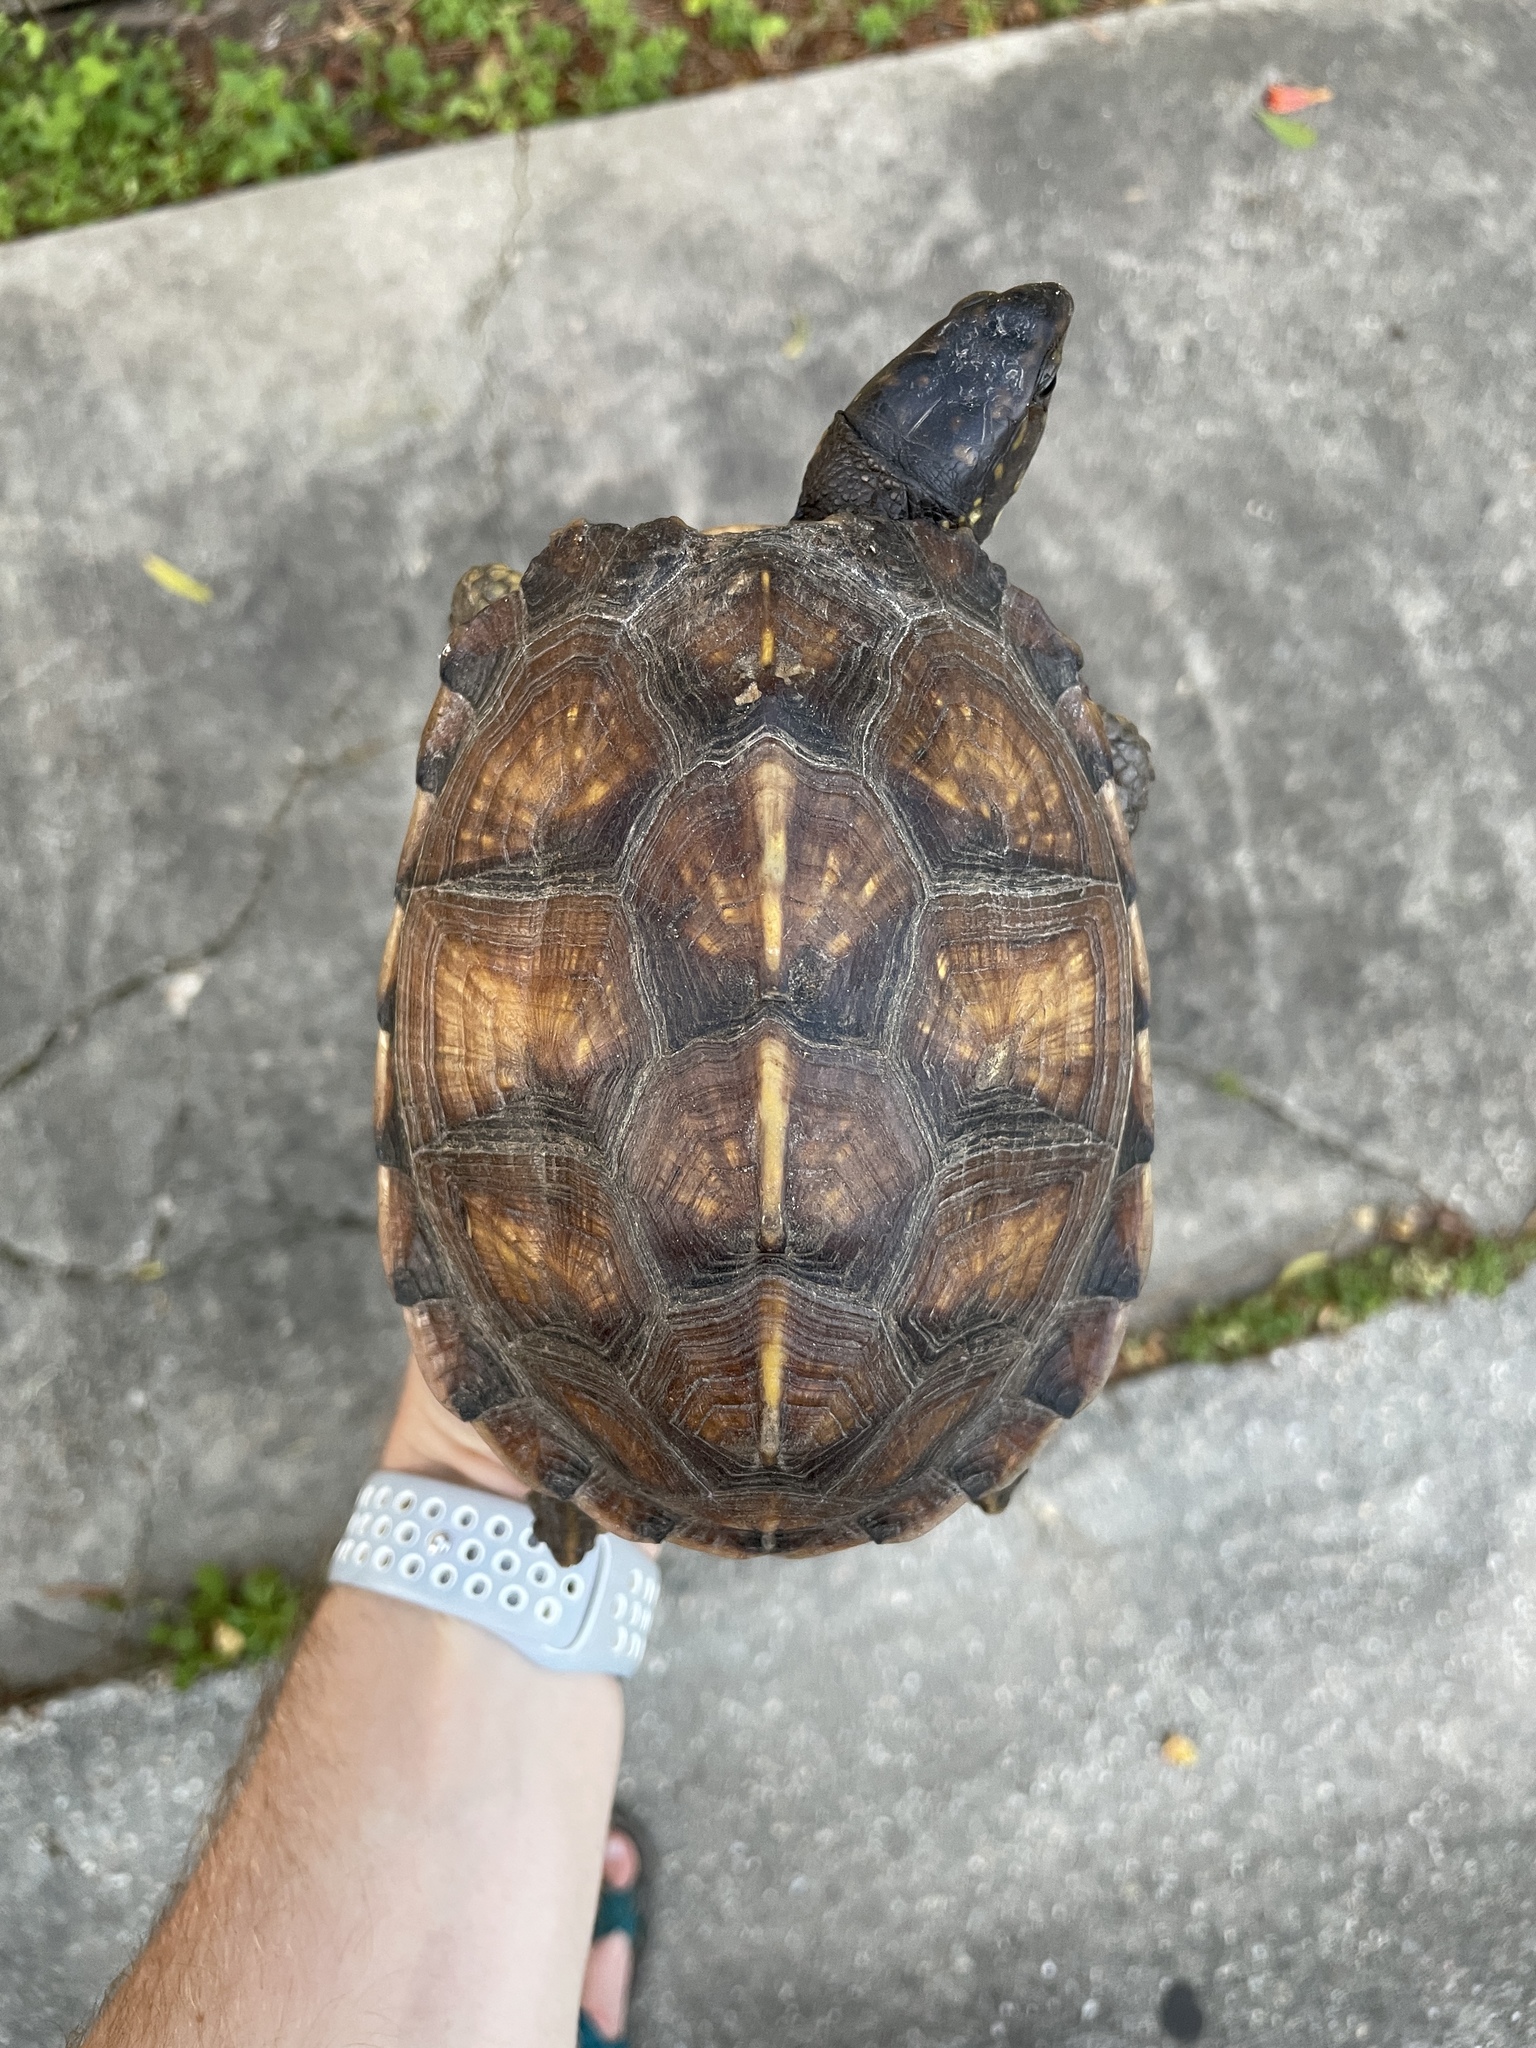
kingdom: Animalia
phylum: Chordata
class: Testudines
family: Emydidae
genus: Terrapene
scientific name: Terrapene carolina
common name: Common box turtle
